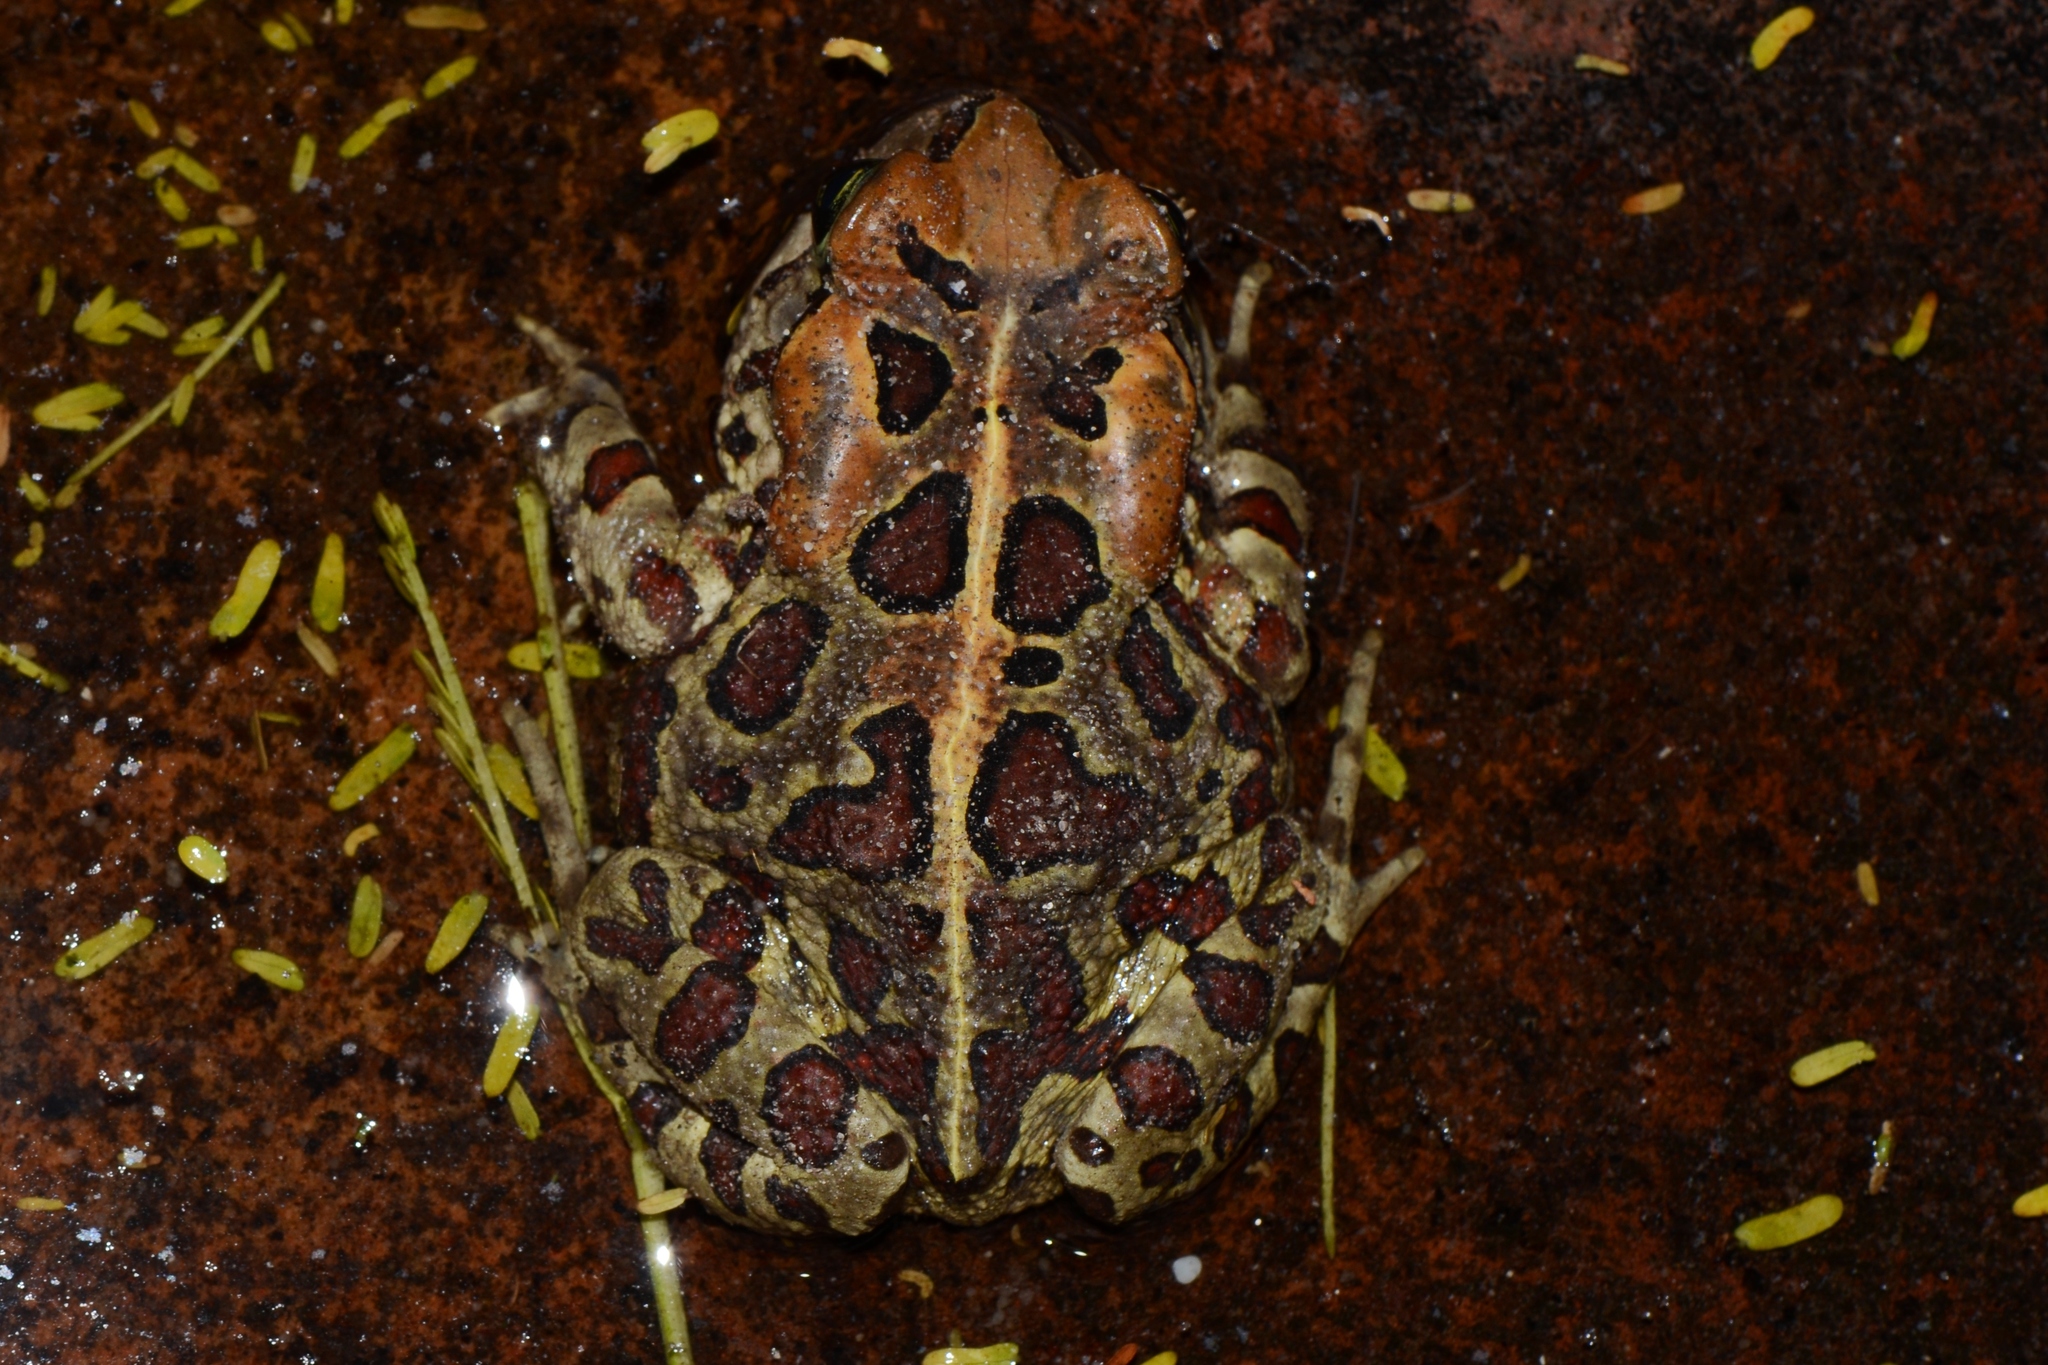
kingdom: Animalia
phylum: Chordata
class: Amphibia
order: Anura
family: Bufonidae
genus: Sclerophrys
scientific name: Sclerophrys pantherina
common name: Panther toad
